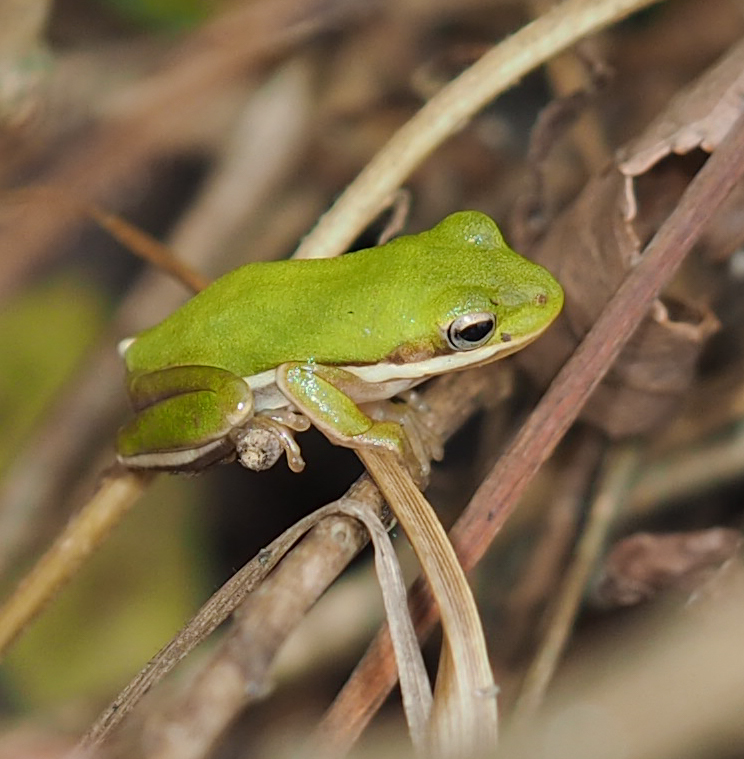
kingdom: Animalia
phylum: Chordata
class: Amphibia
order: Anura
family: Hylidae
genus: Dryophytes
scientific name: Dryophytes cinereus
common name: Green treefrog
